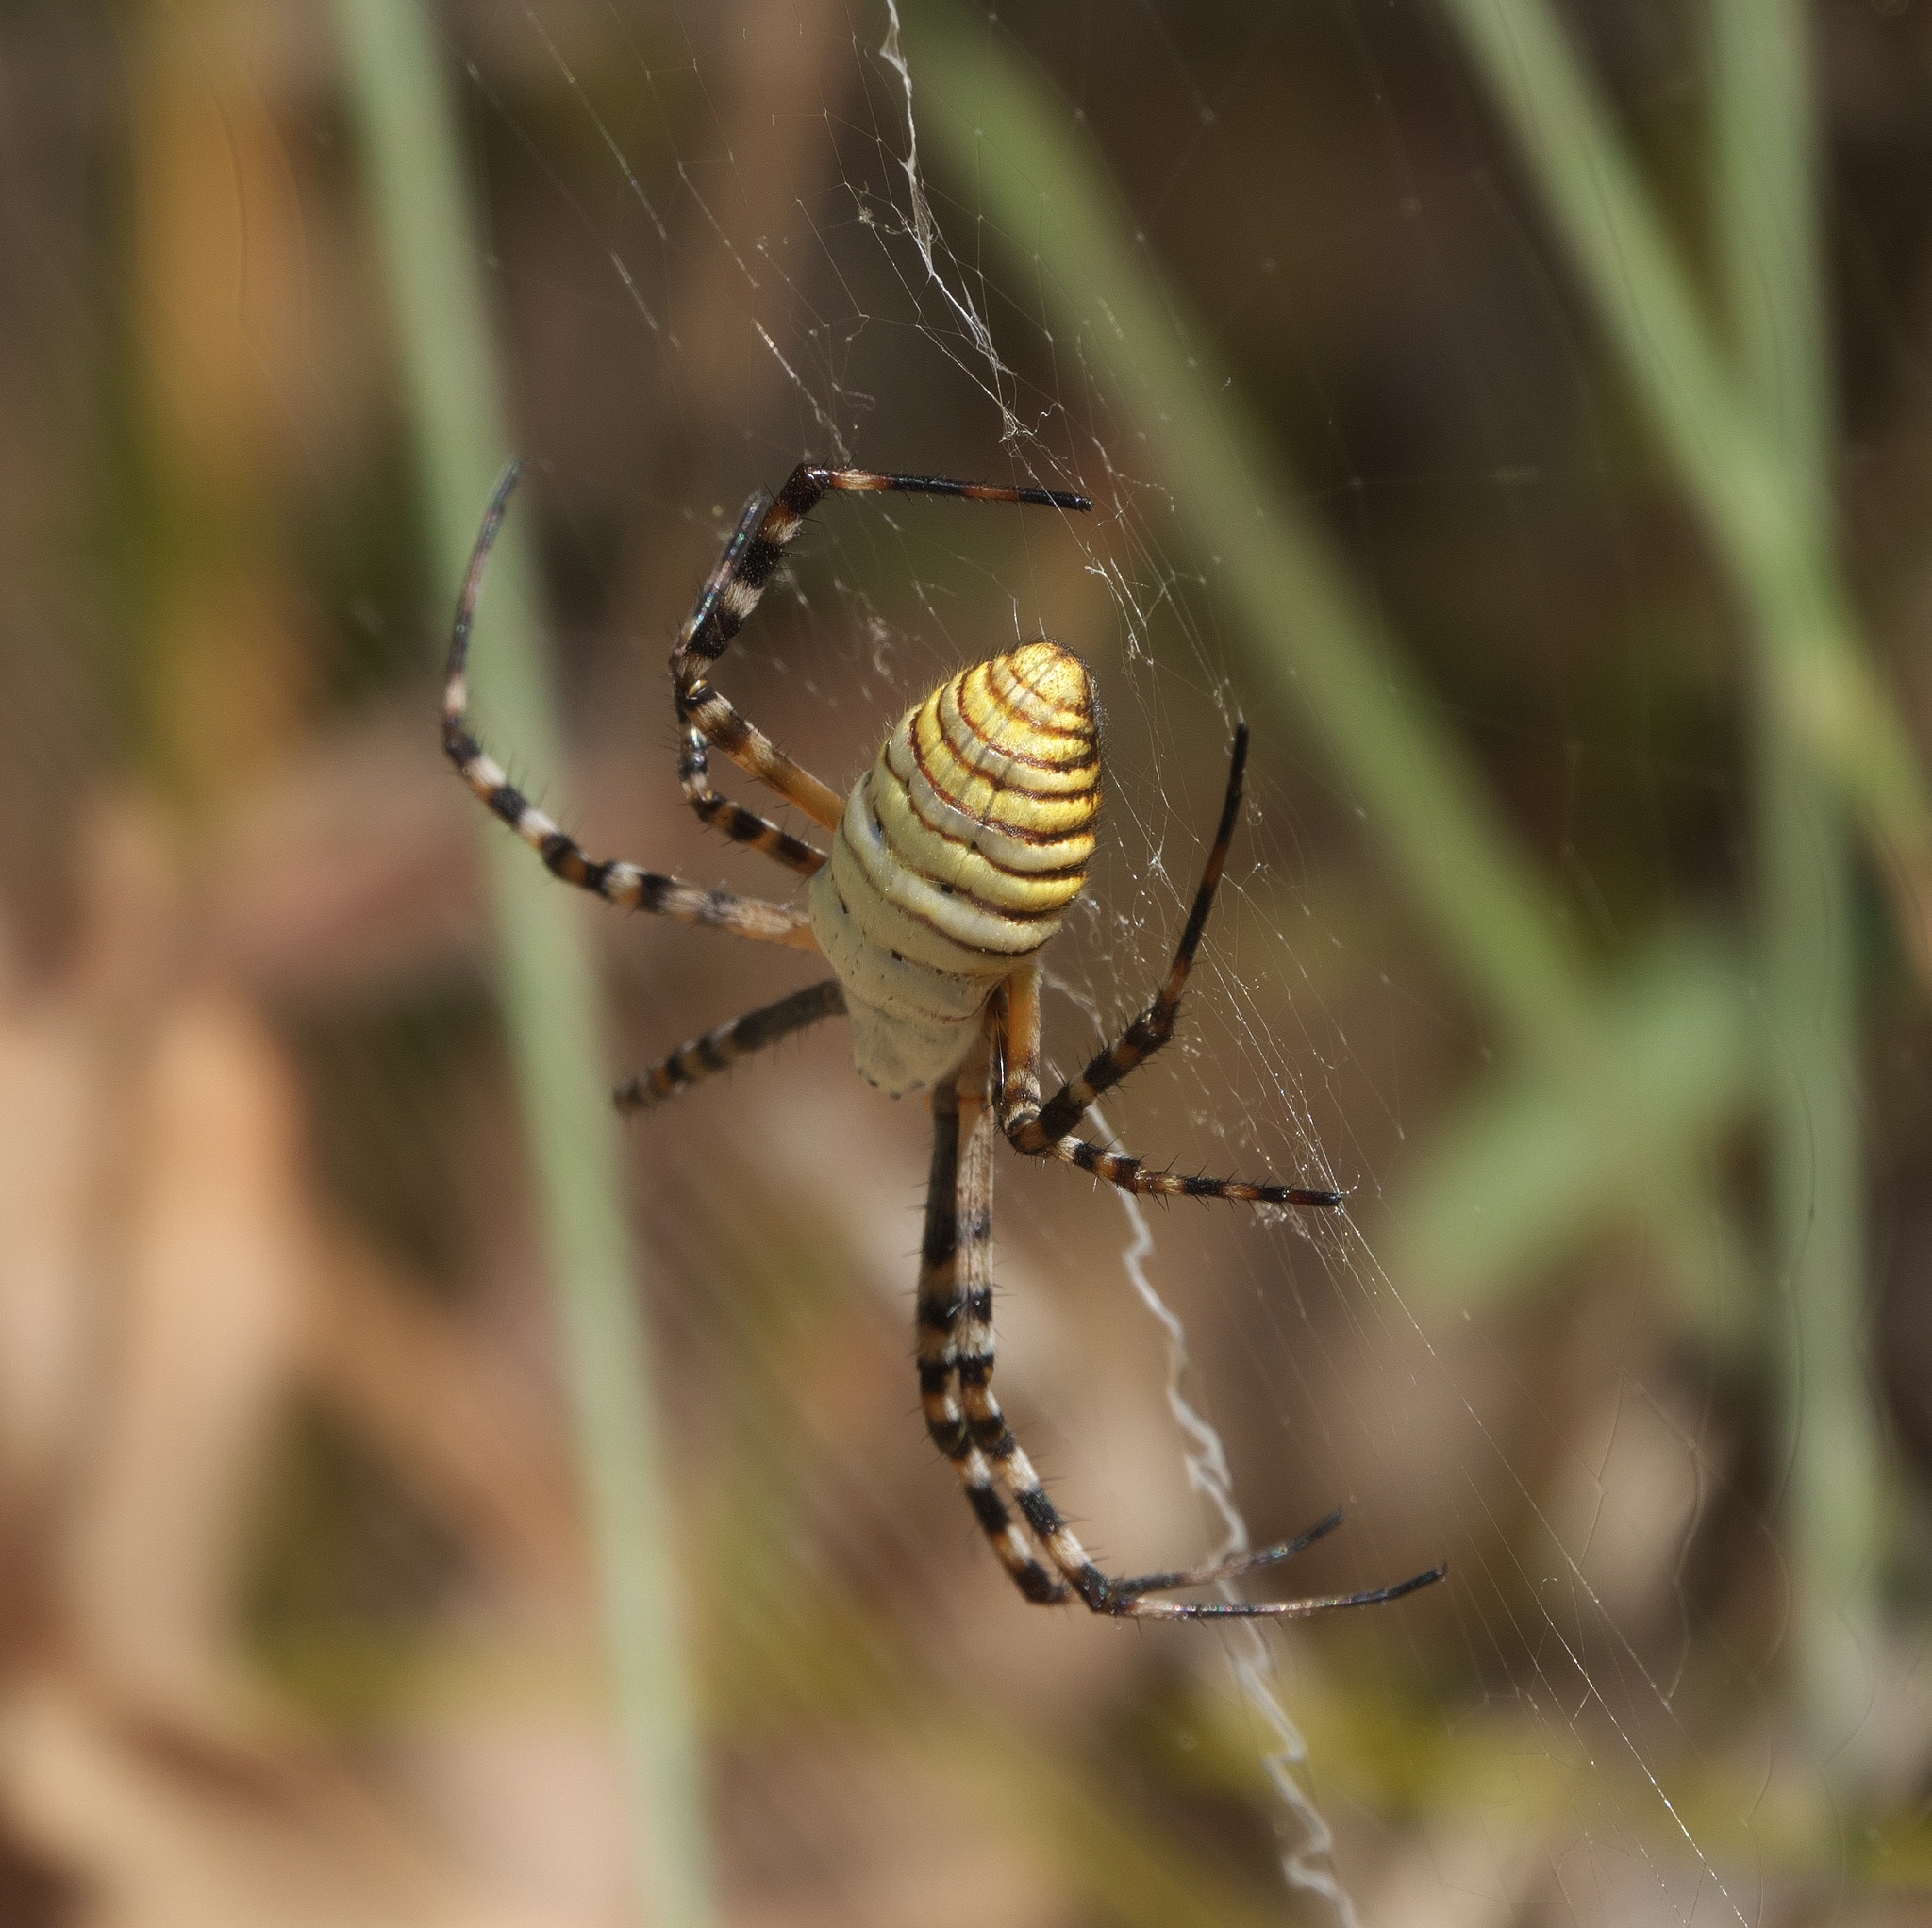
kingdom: Animalia
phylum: Arthropoda
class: Arachnida
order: Araneae
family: Araneidae
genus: Argiope
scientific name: Argiope trifasciata
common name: Banded garden spider
